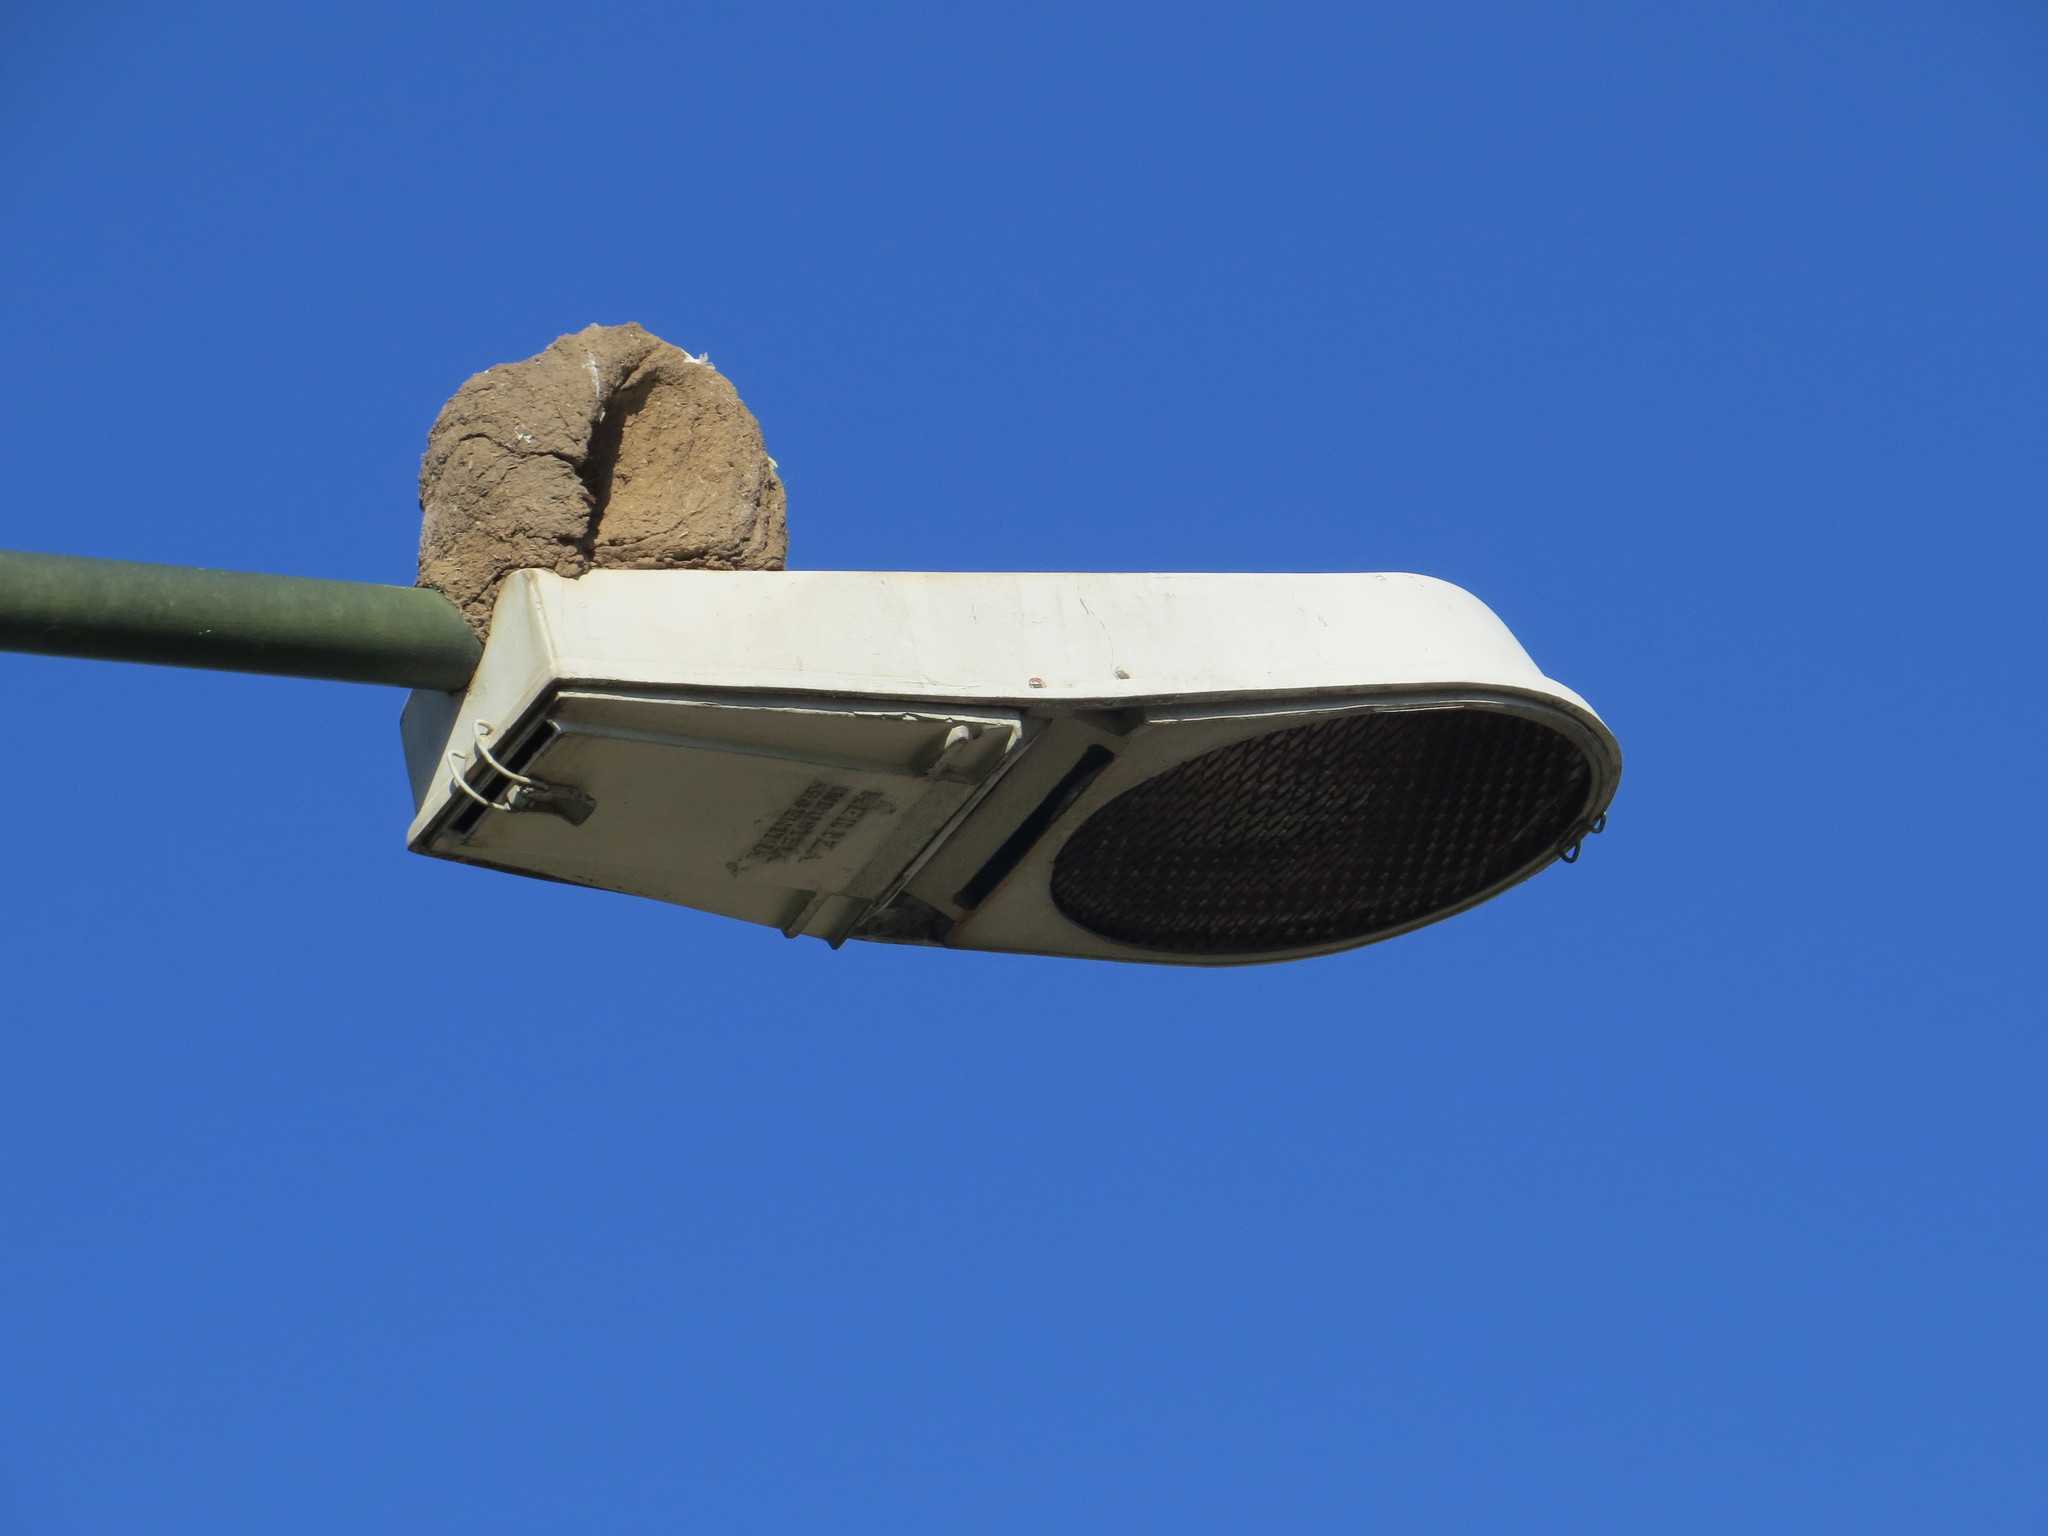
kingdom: Animalia
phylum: Chordata
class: Aves
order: Passeriformes
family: Furnariidae
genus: Furnarius
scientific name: Furnarius rufus
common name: Rufous hornero
